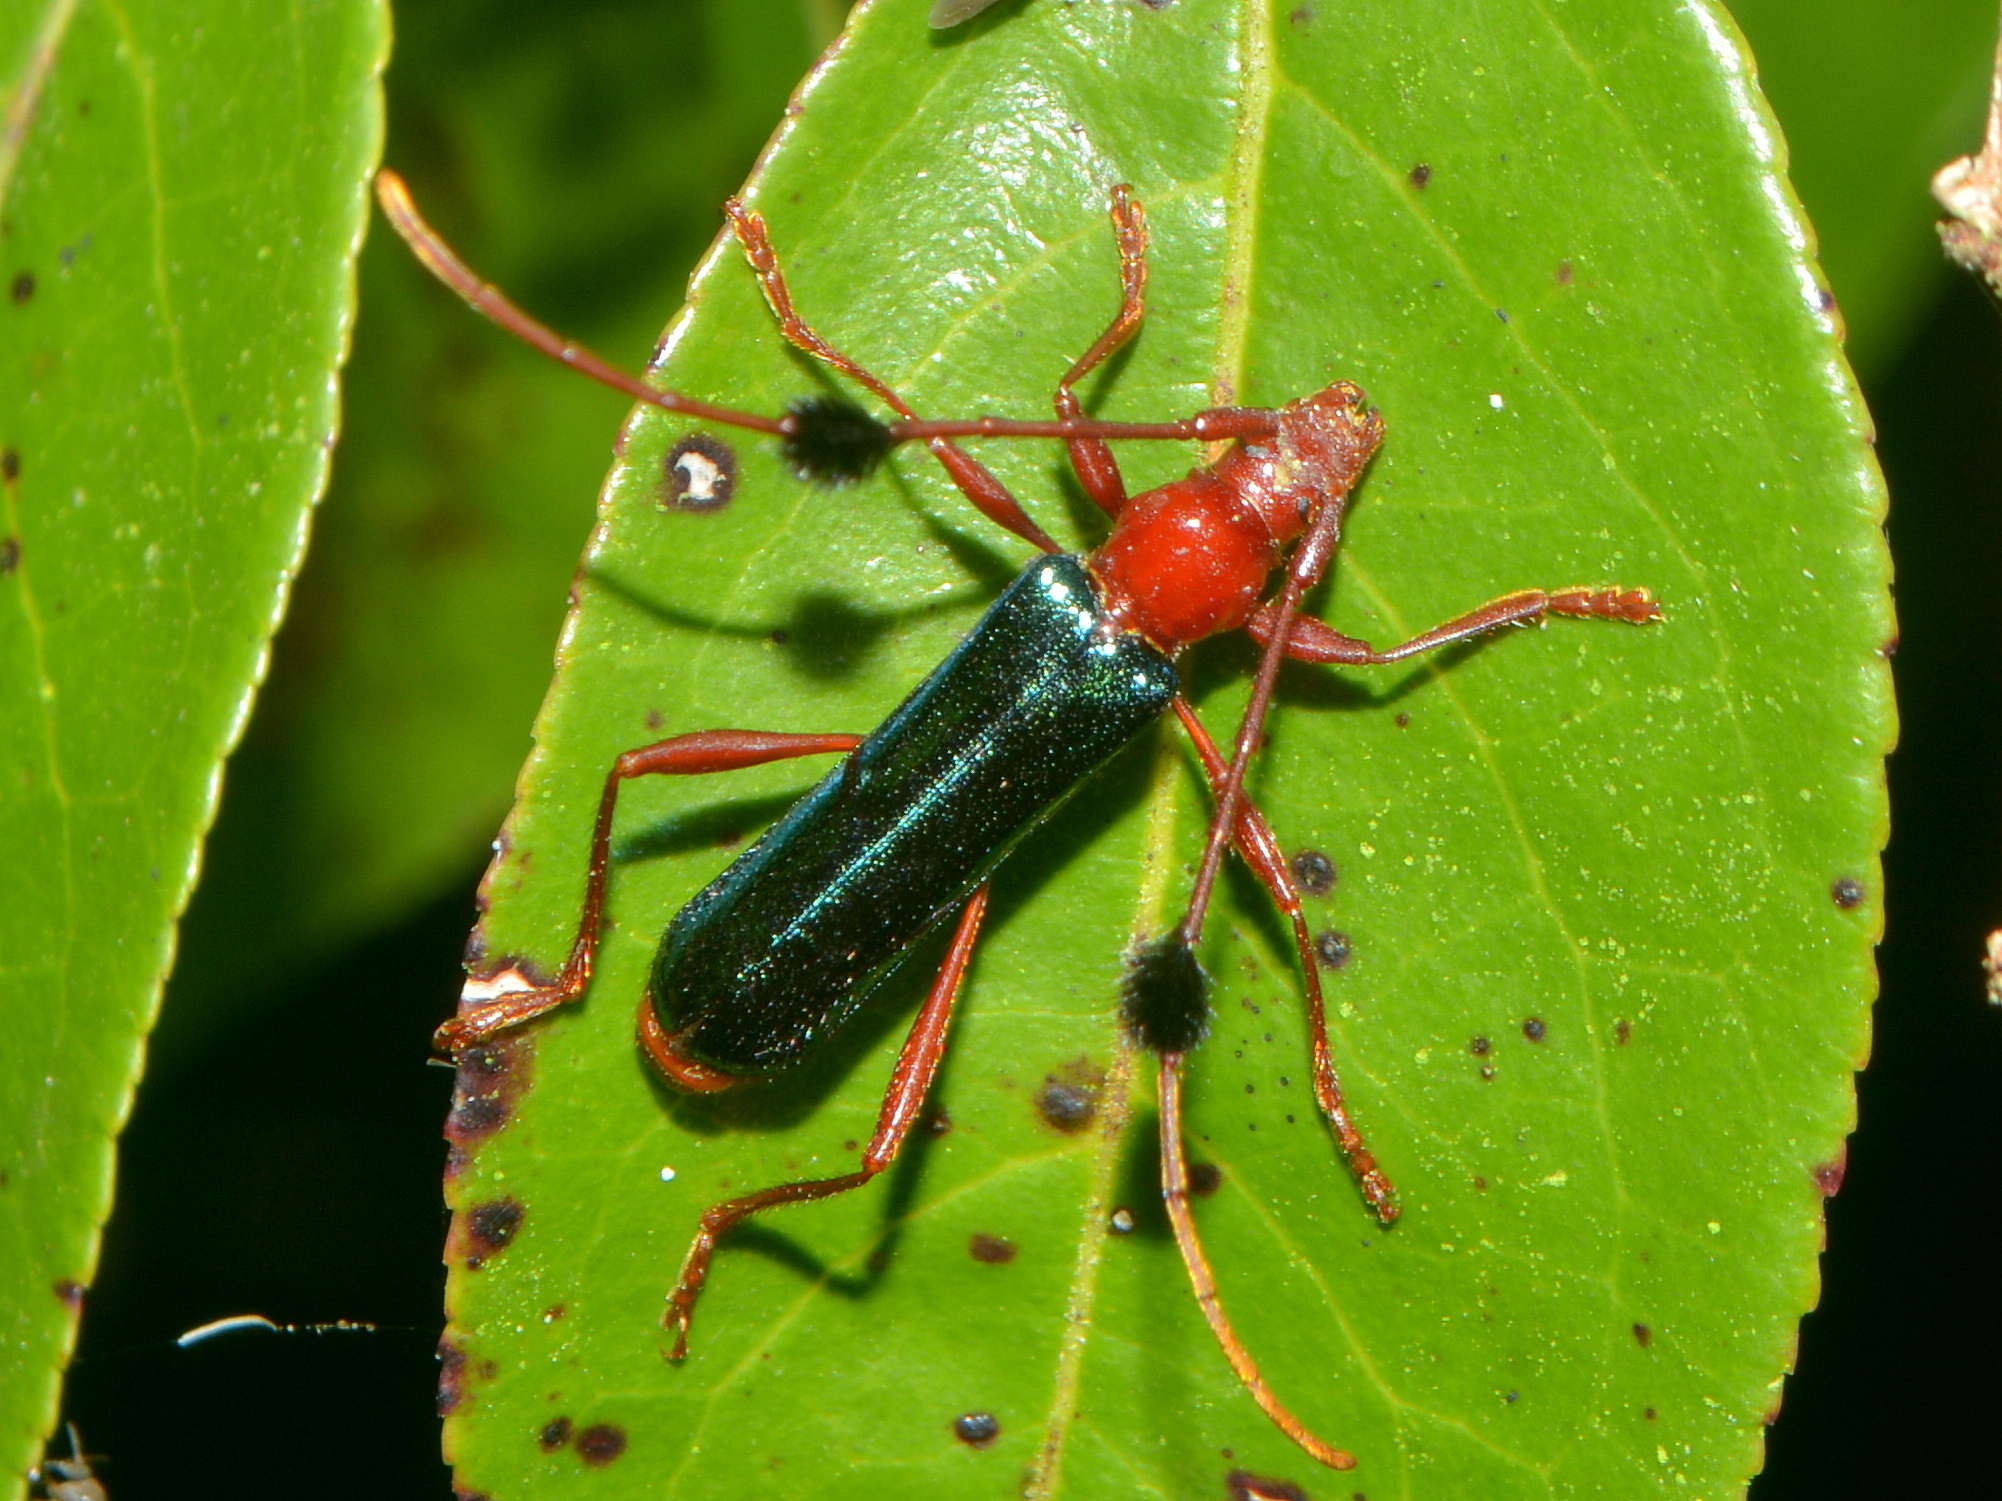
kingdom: Animalia
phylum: Arthropoda
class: Insecta
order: Coleoptera
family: Cerambycidae
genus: Paromoeocerus
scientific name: Paromoeocerus barbicornis
